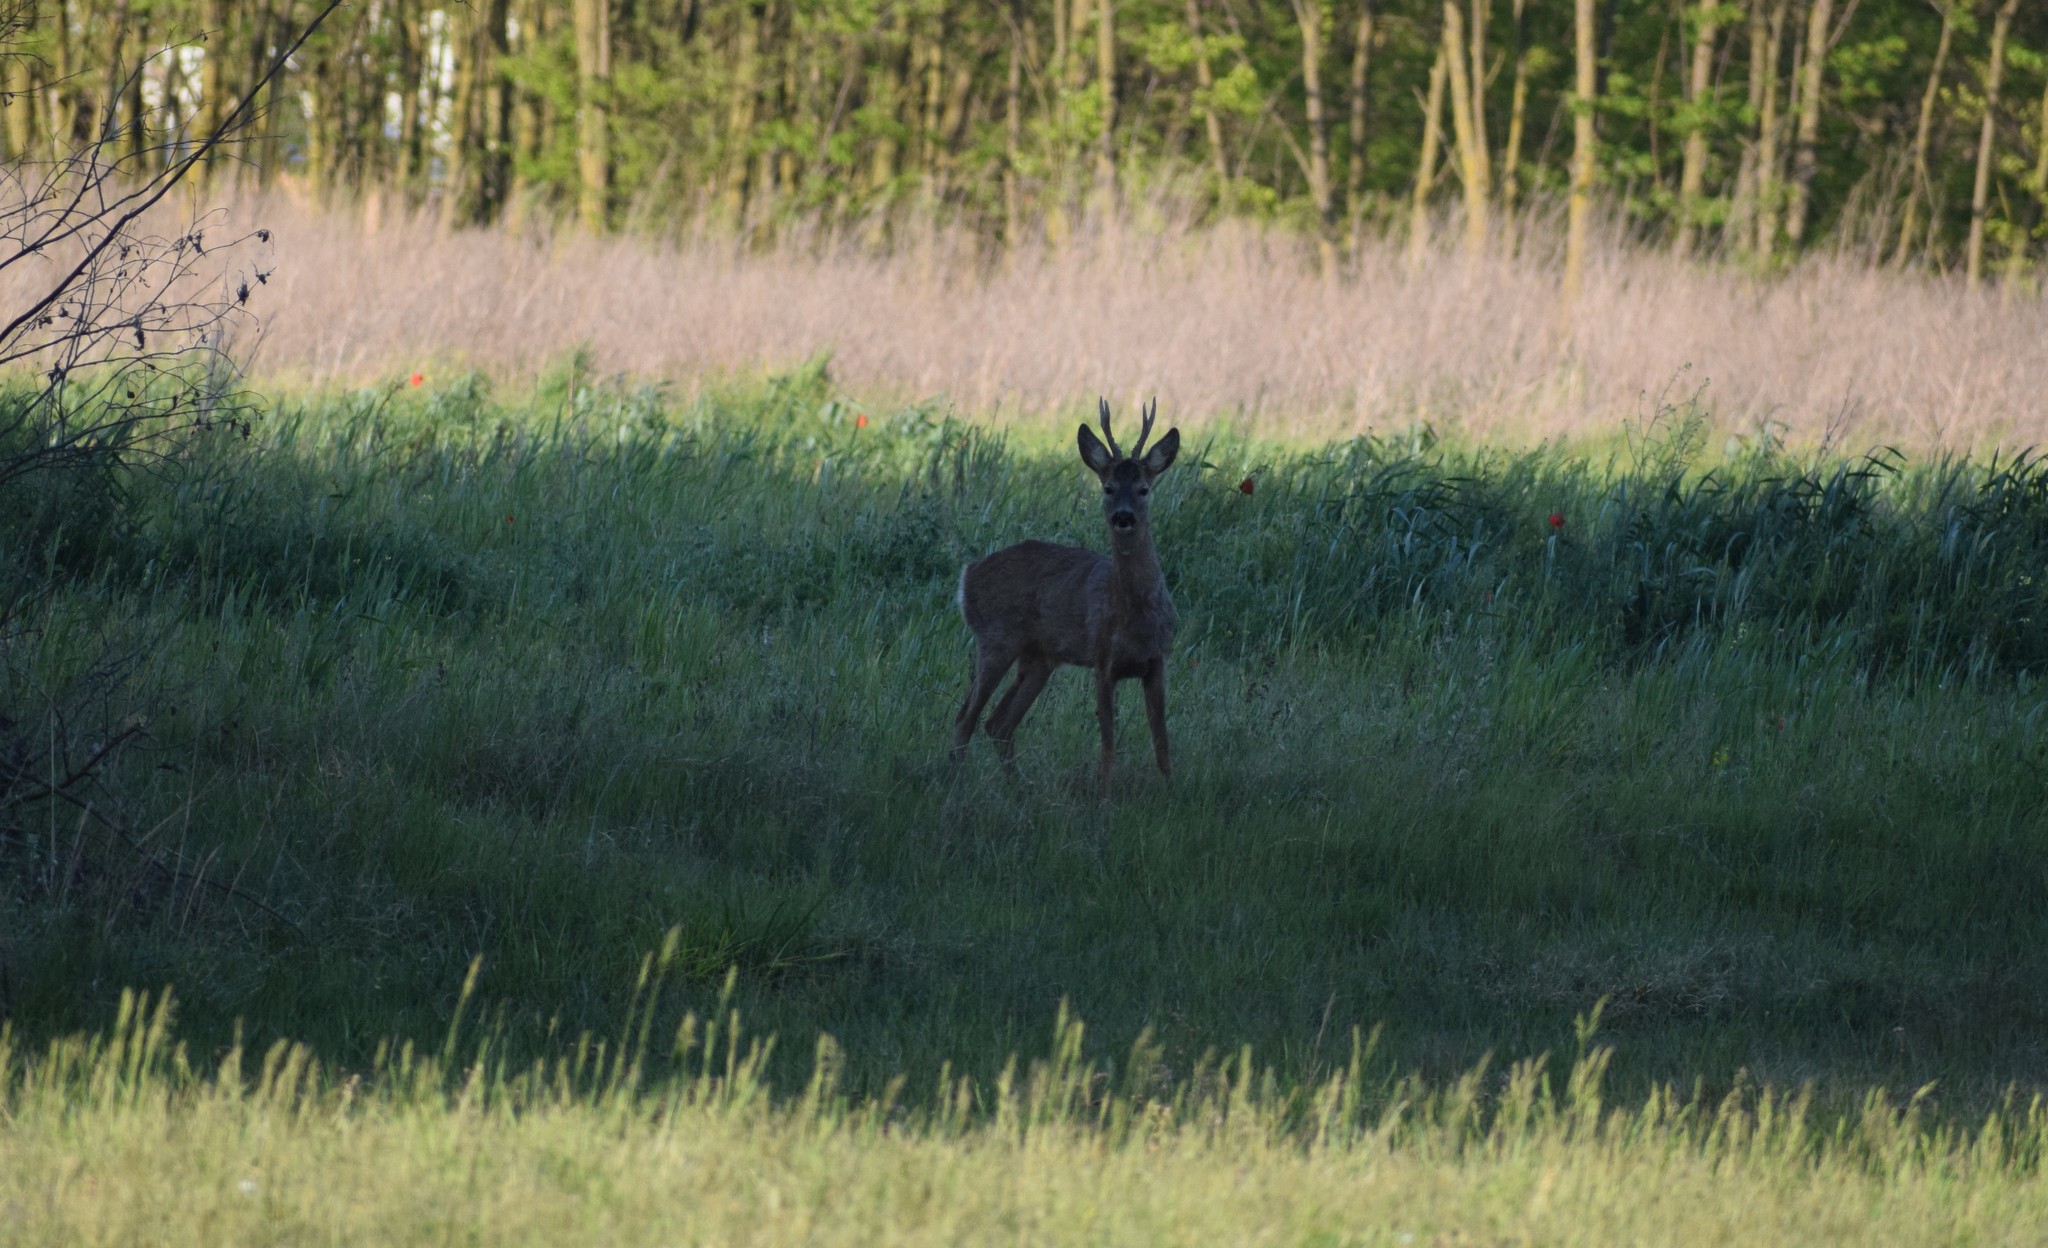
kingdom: Animalia
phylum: Chordata
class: Mammalia
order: Artiodactyla
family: Cervidae
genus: Capreolus
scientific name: Capreolus capreolus
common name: Western roe deer
